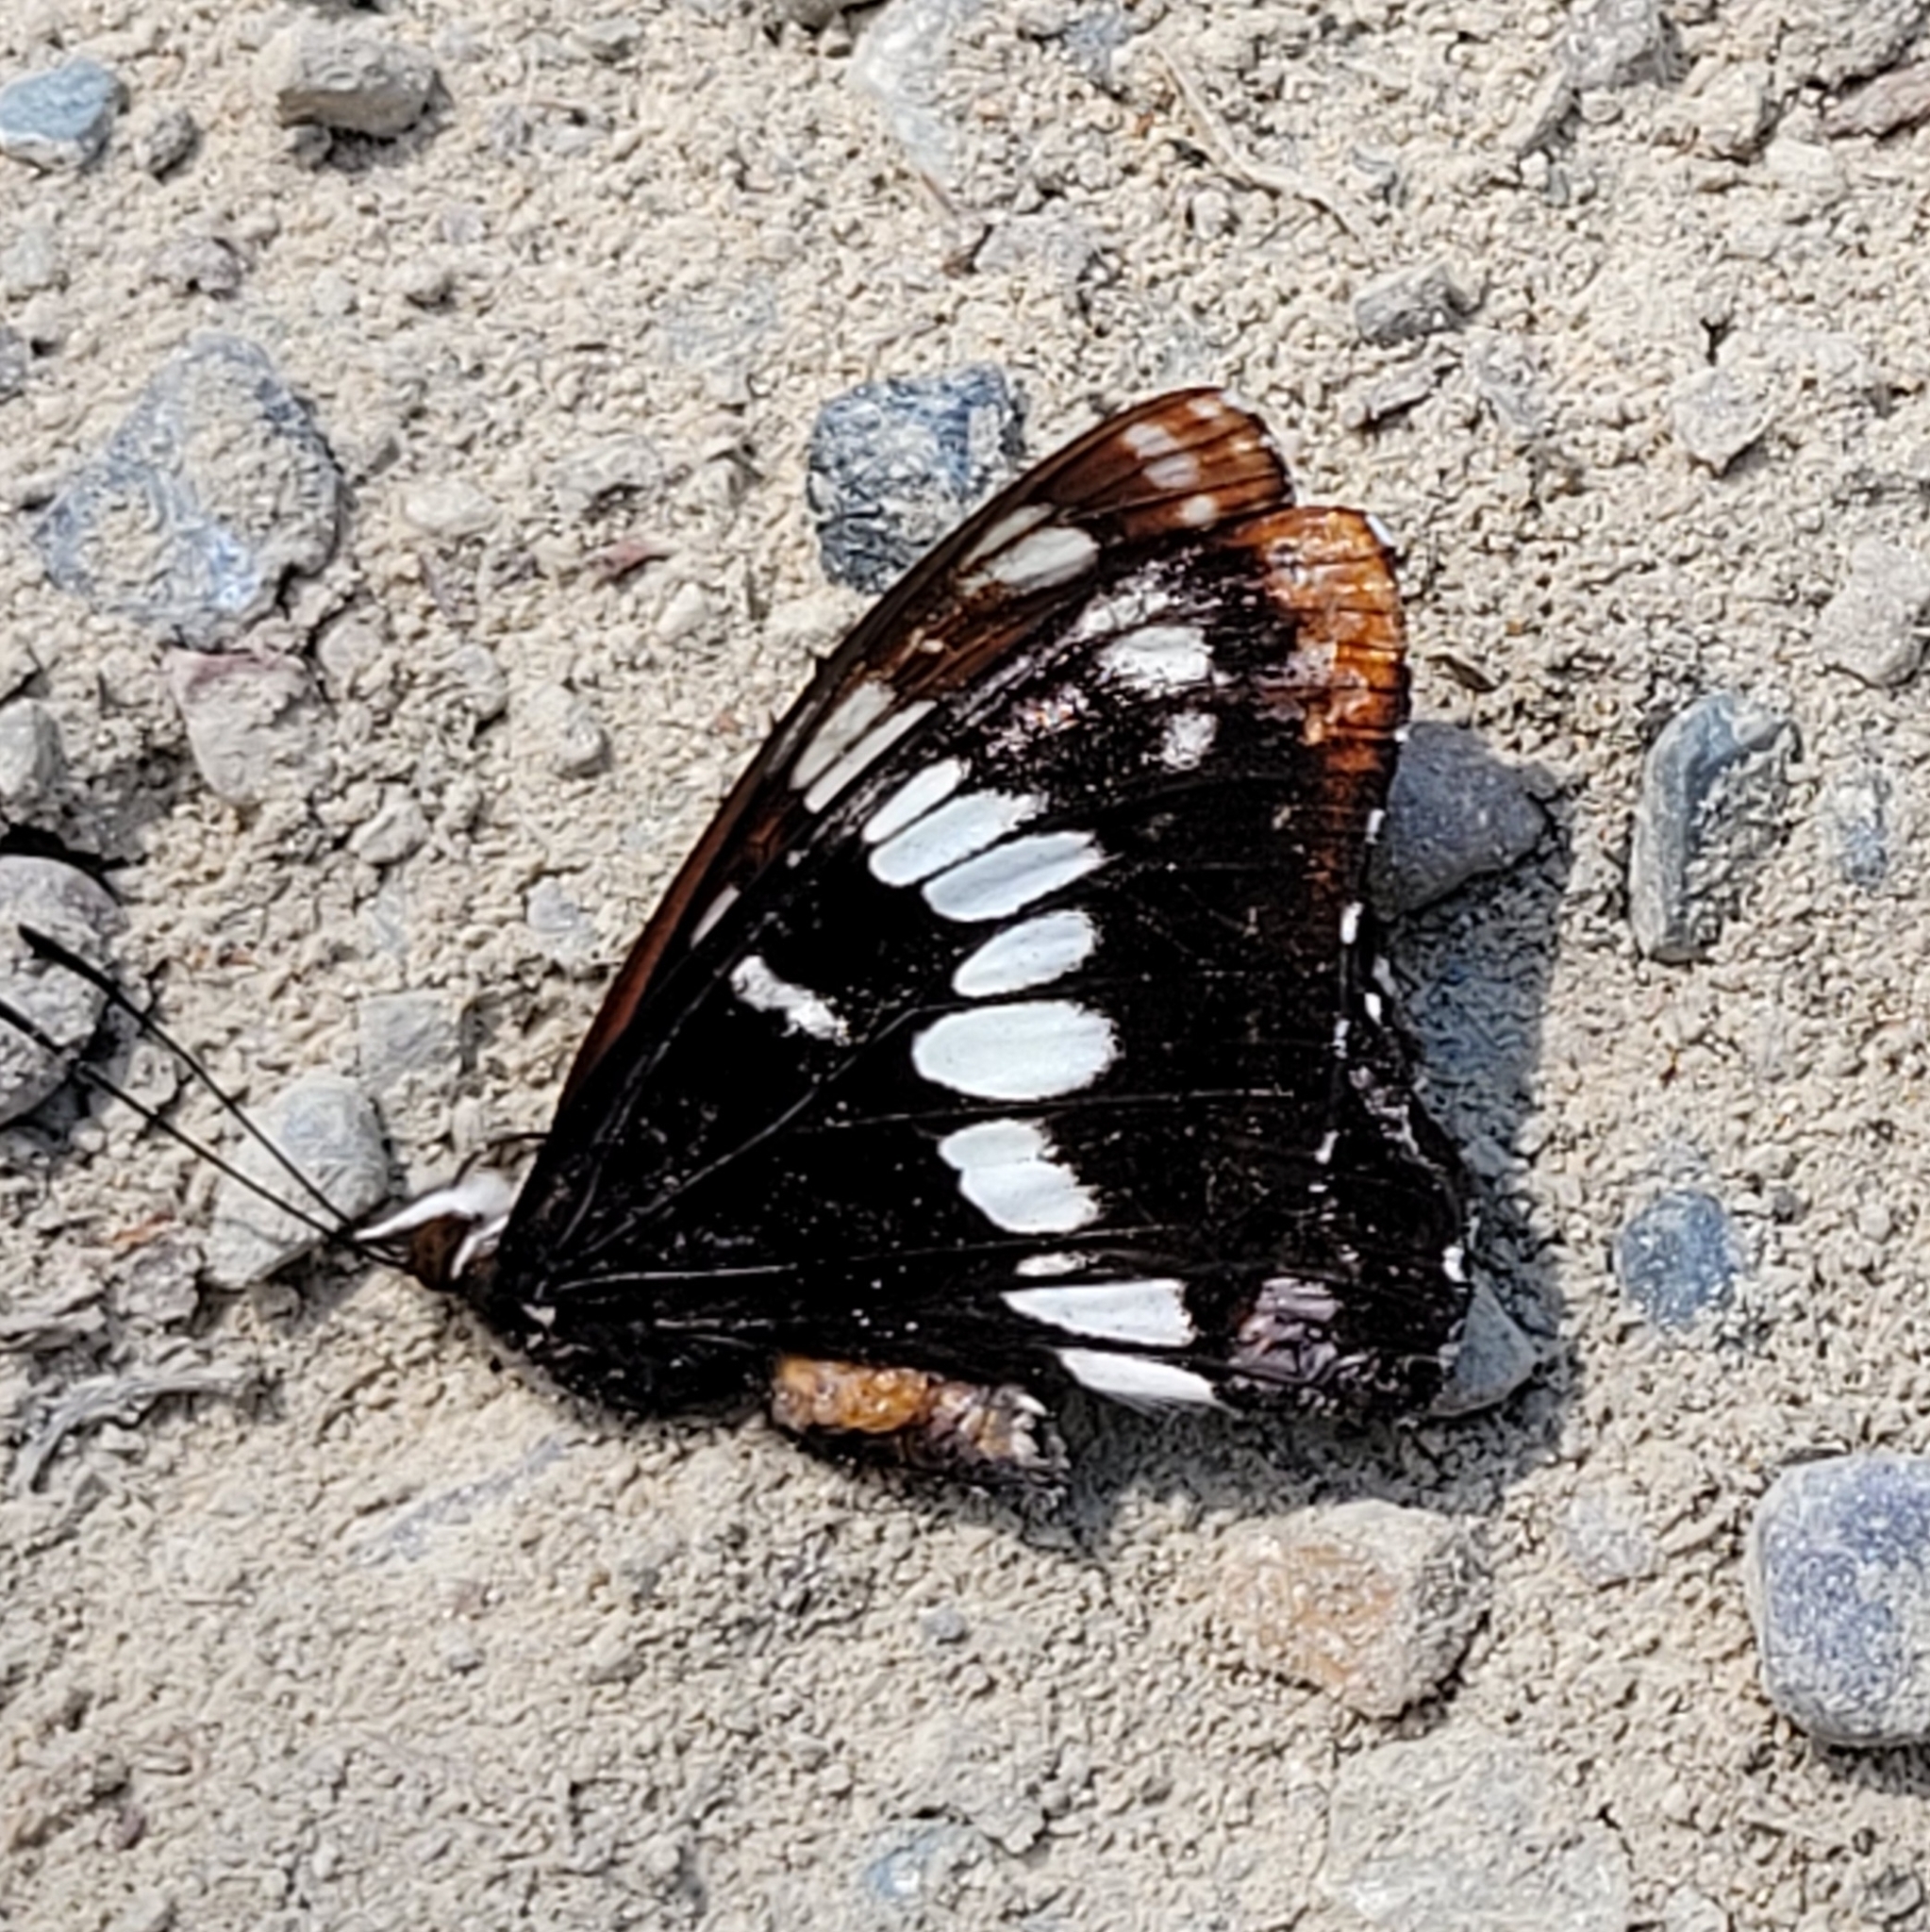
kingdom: Animalia
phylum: Arthropoda
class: Insecta
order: Lepidoptera
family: Nymphalidae
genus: Limenitis
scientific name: Limenitis lorquini
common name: Lorquin's admiral
